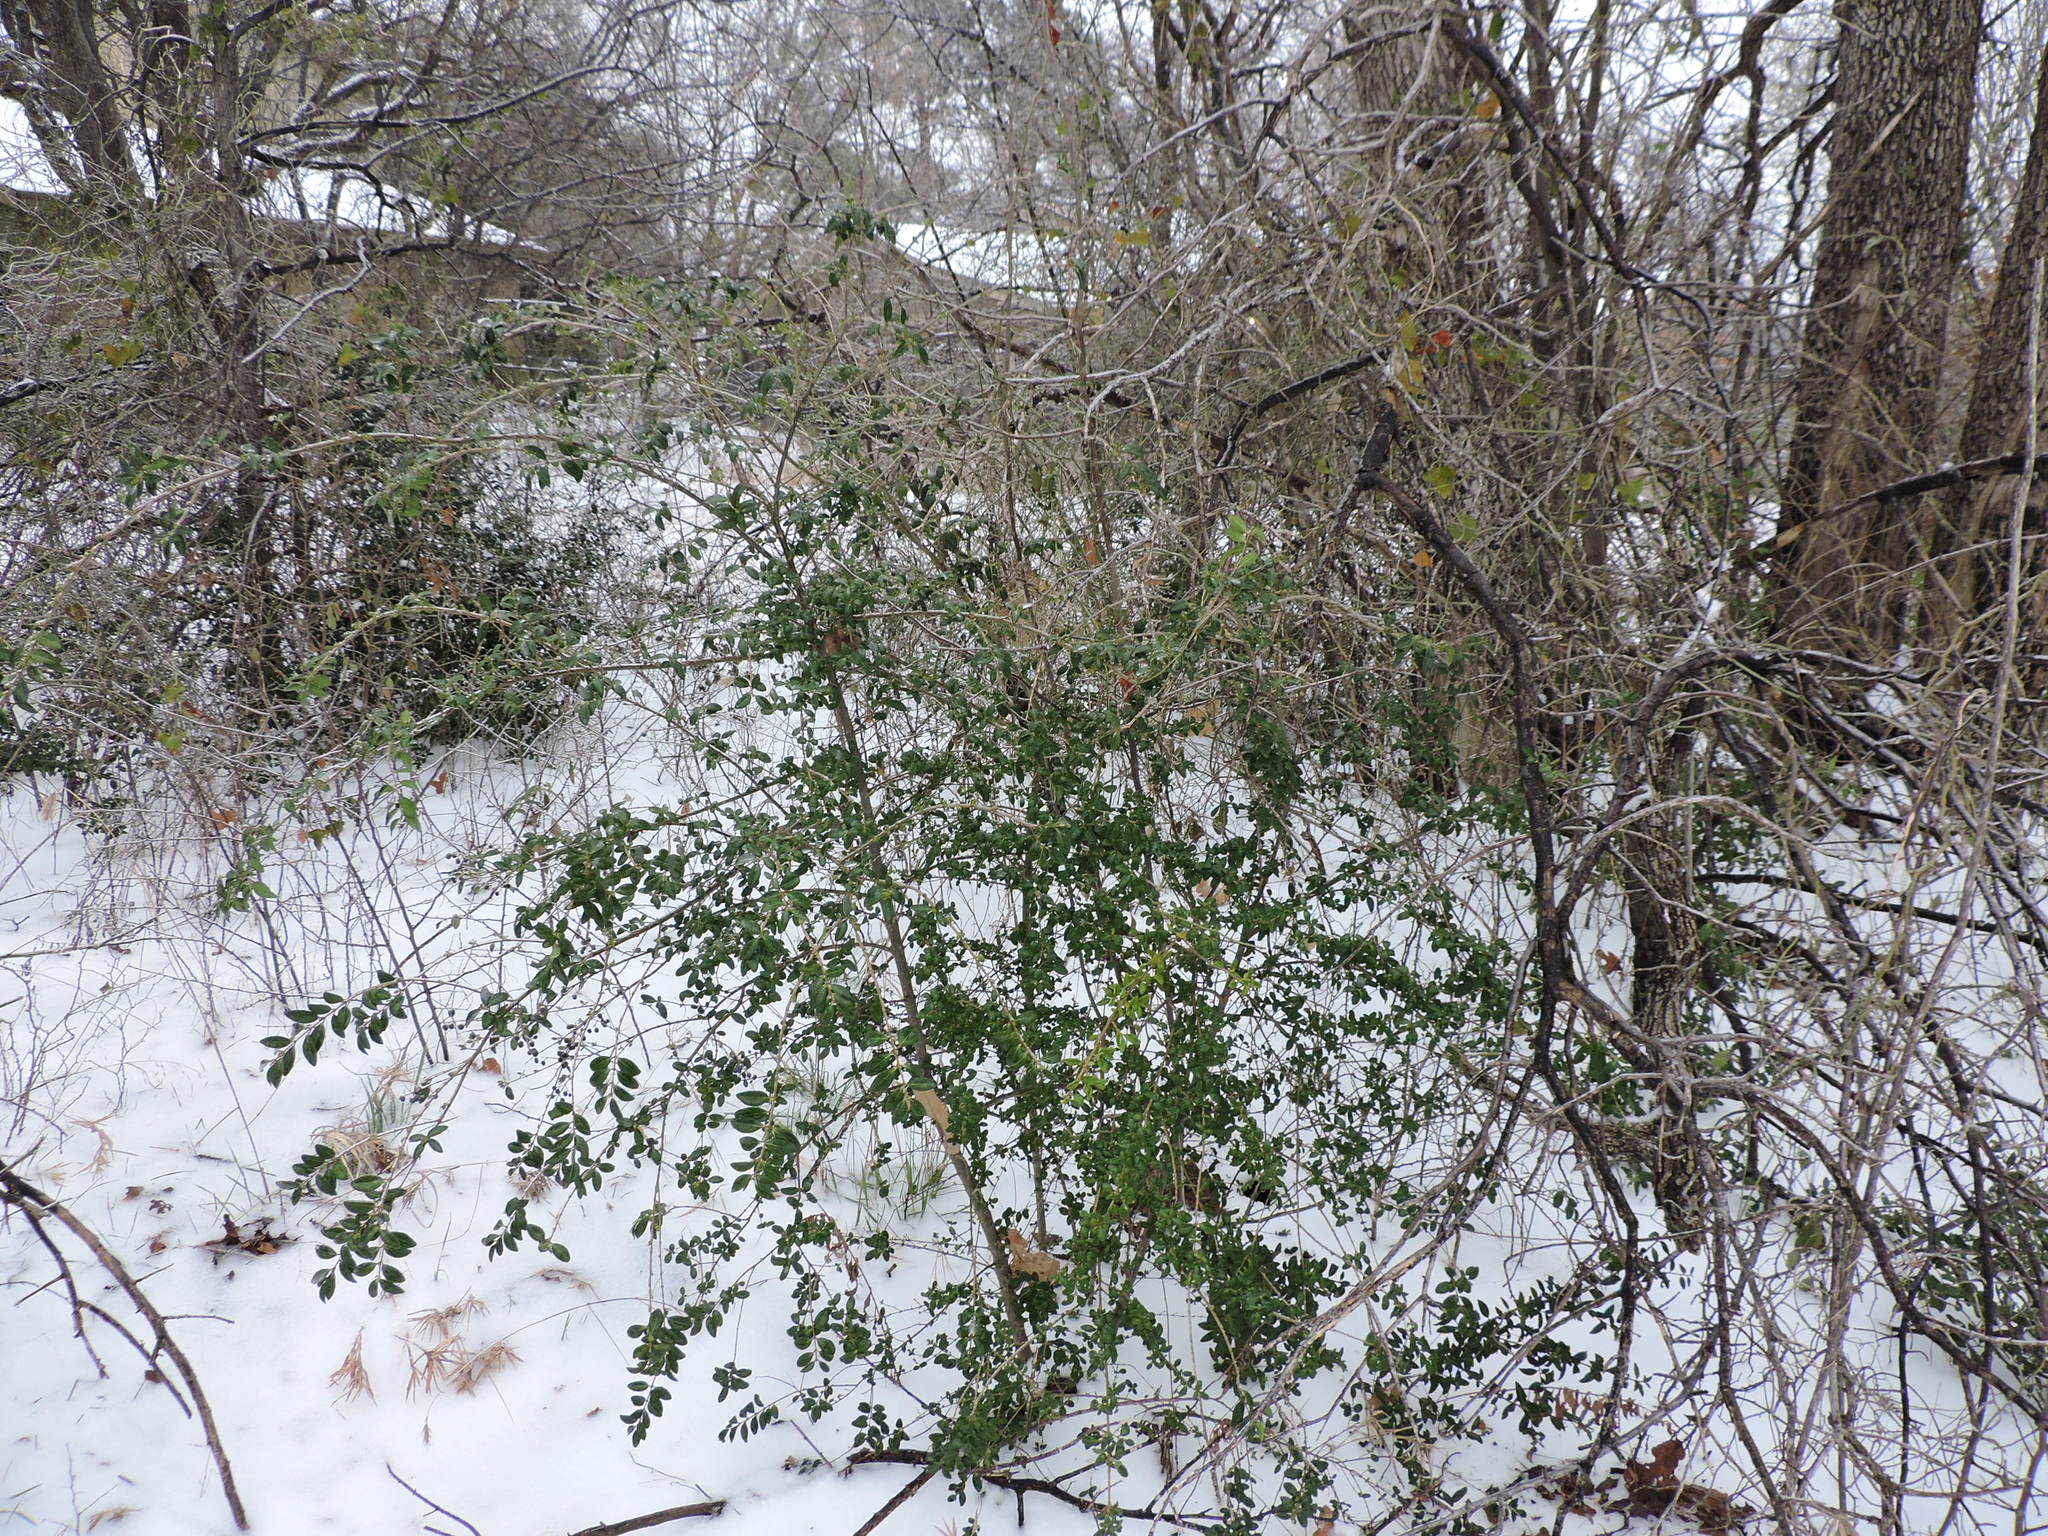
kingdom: Plantae
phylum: Tracheophyta
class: Magnoliopsida
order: Lamiales
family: Oleaceae
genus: Ligustrum
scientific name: Ligustrum sinense
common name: Chinese privet
